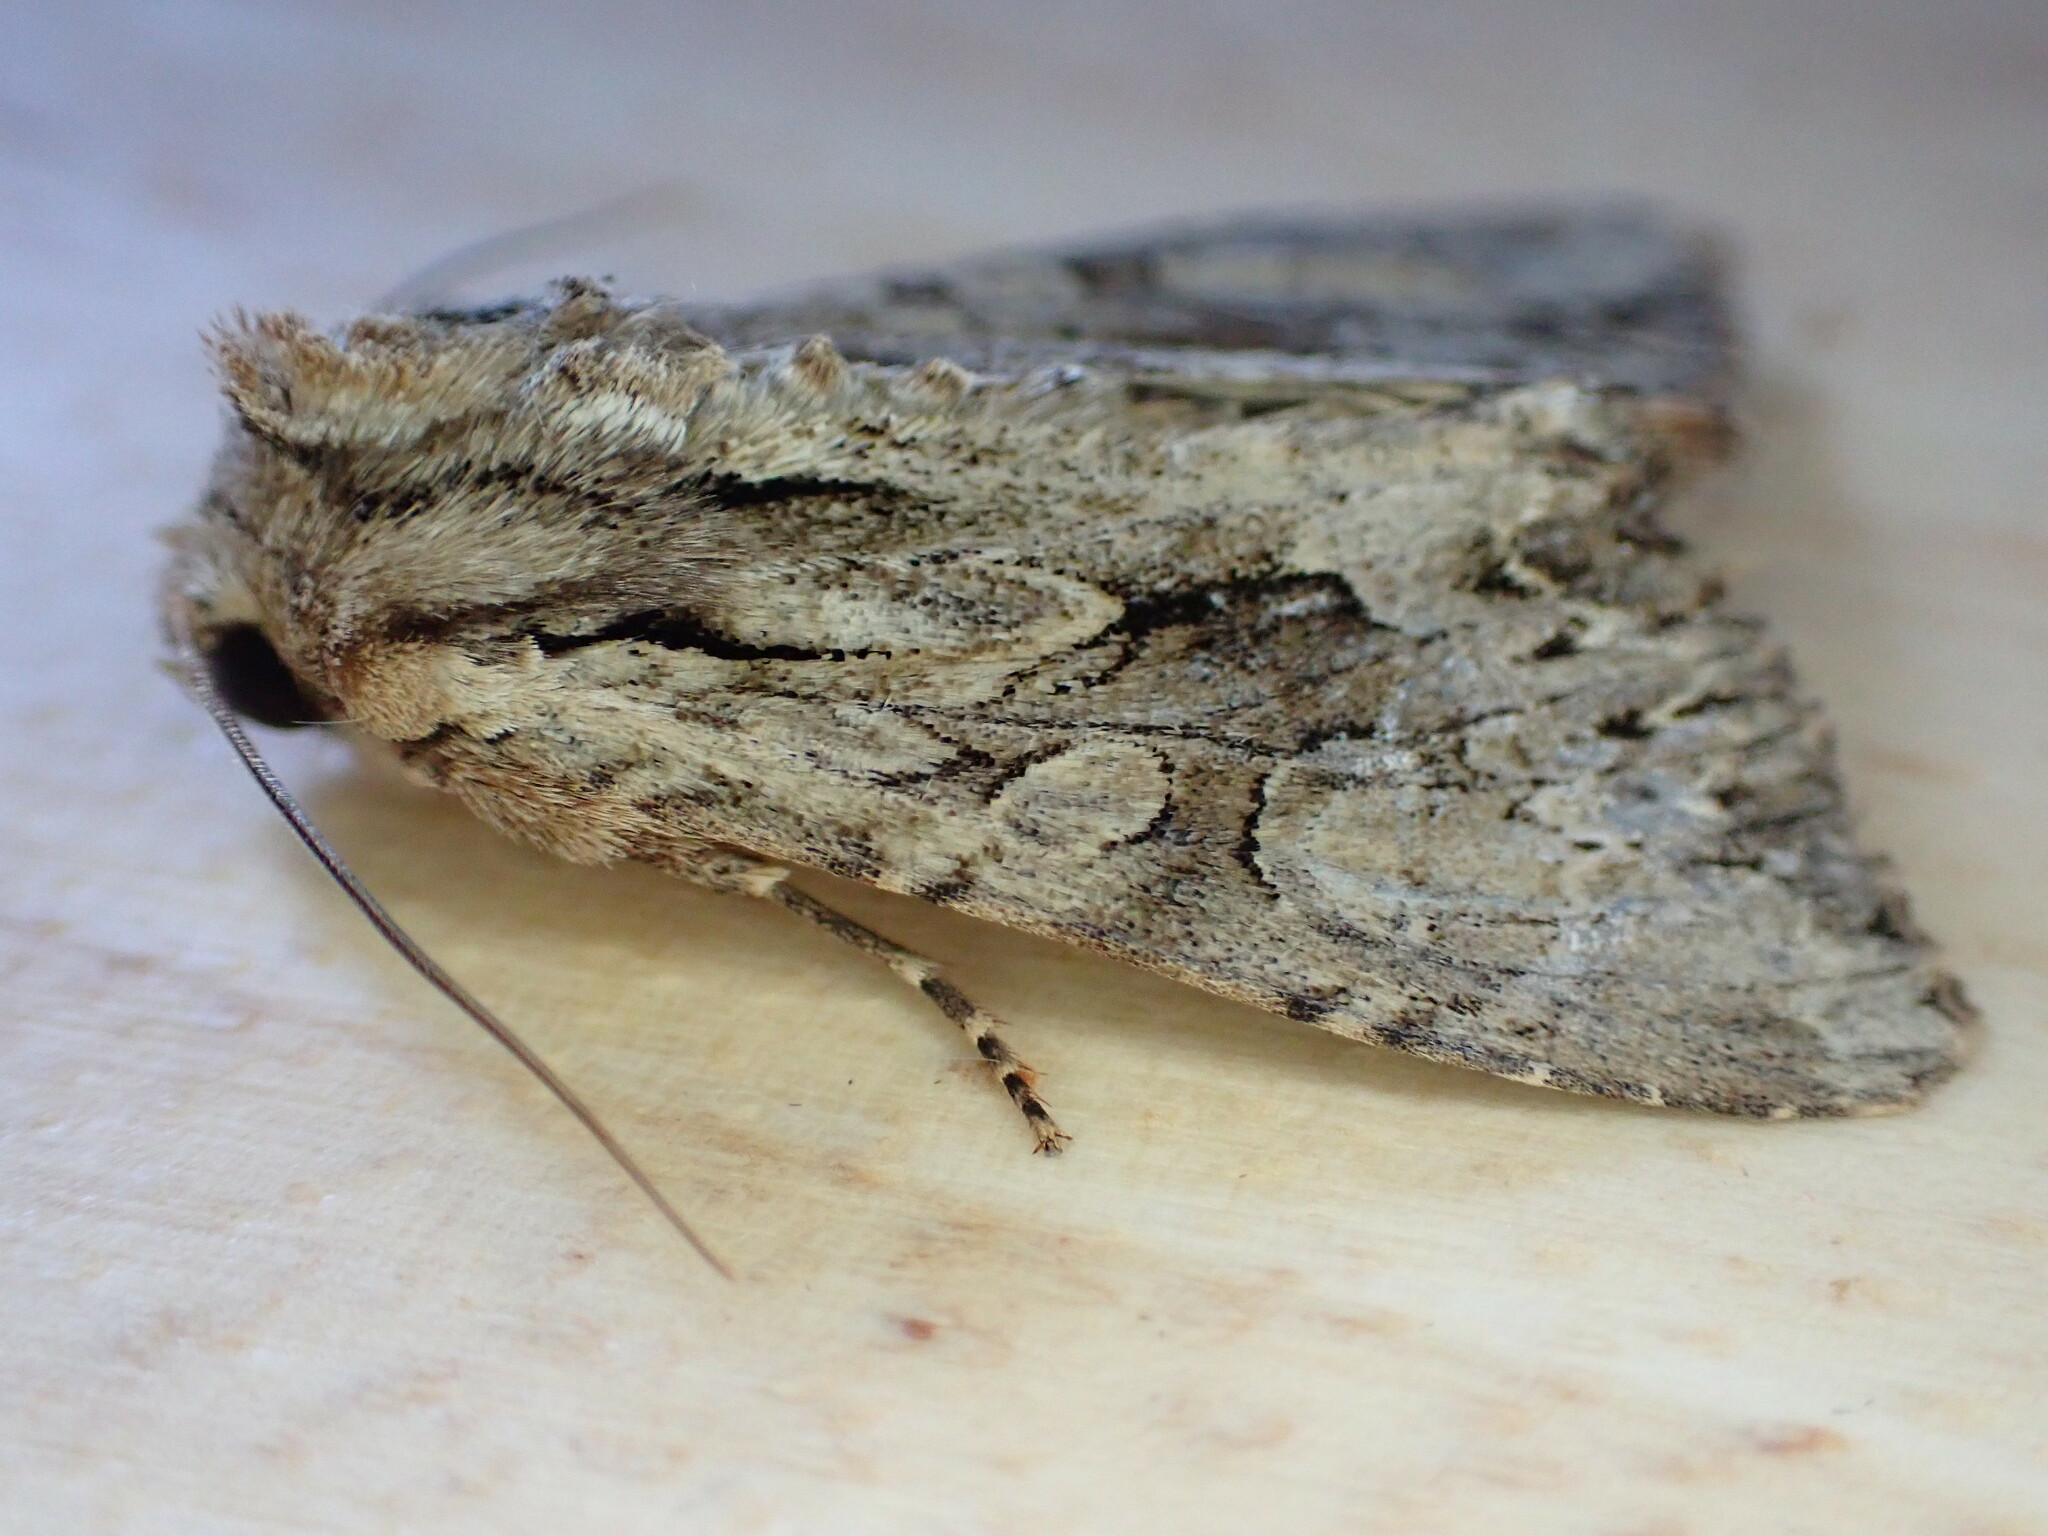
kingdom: Animalia
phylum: Arthropoda
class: Insecta
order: Lepidoptera
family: Noctuidae
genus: Apamea
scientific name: Apamea monoglypha
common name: Dark arches
